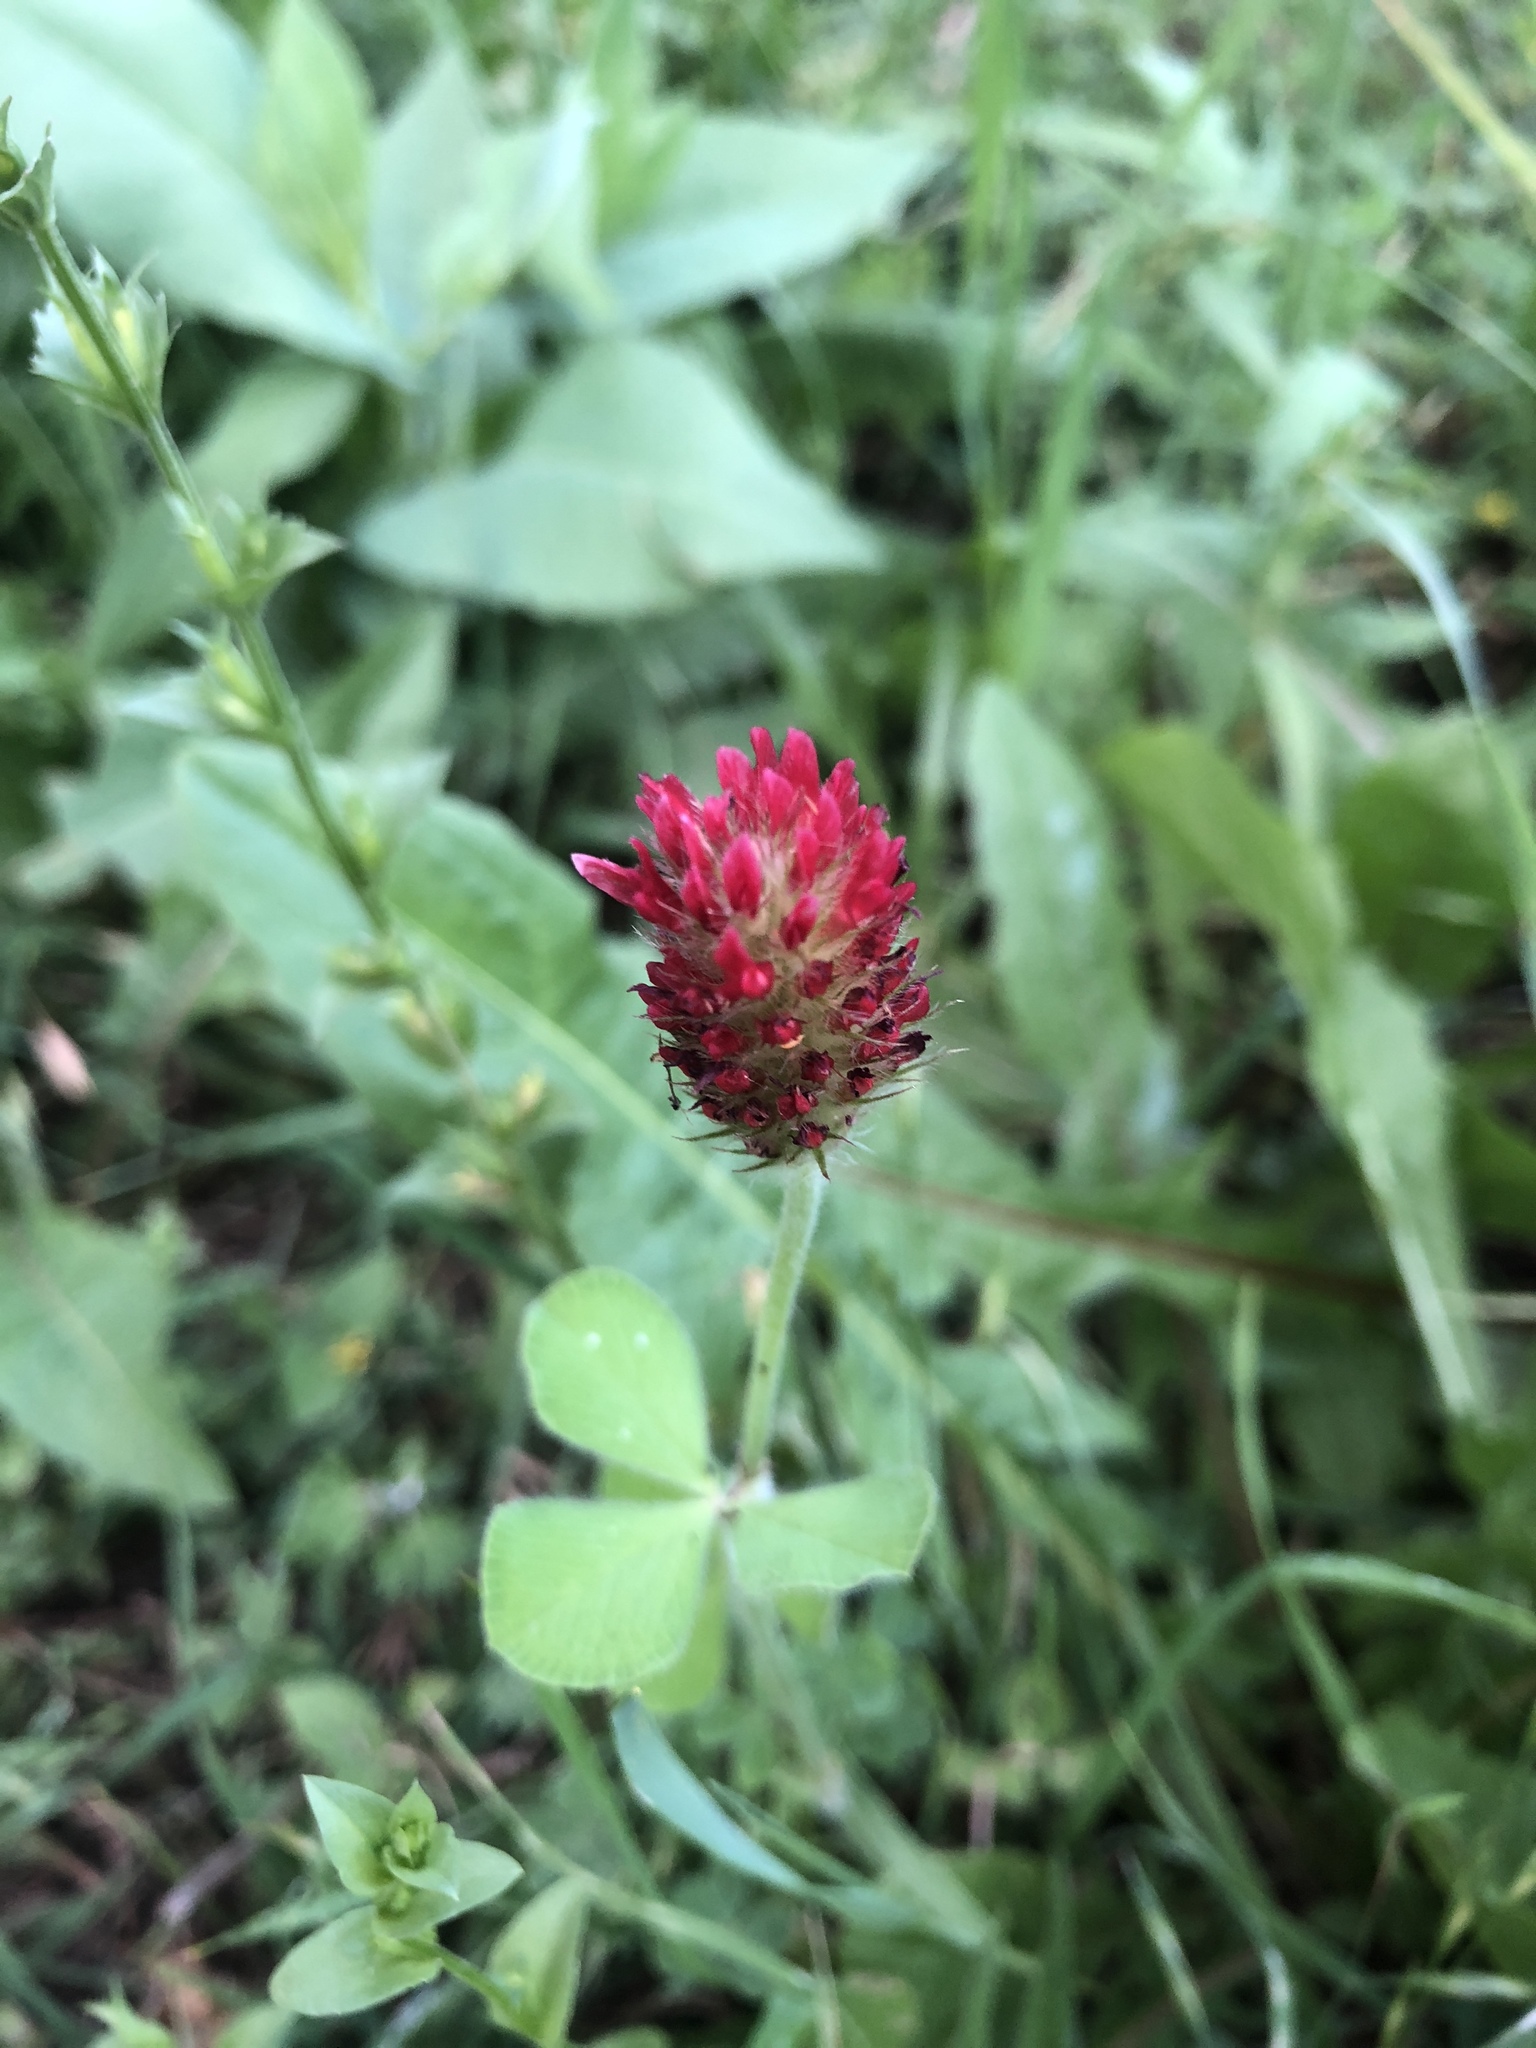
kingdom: Plantae
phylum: Tracheophyta
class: Magnoliopsida
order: Fabales
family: Fabaceae
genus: Trifolium
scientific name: Trifolium incarnatum
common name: Crimson clover
